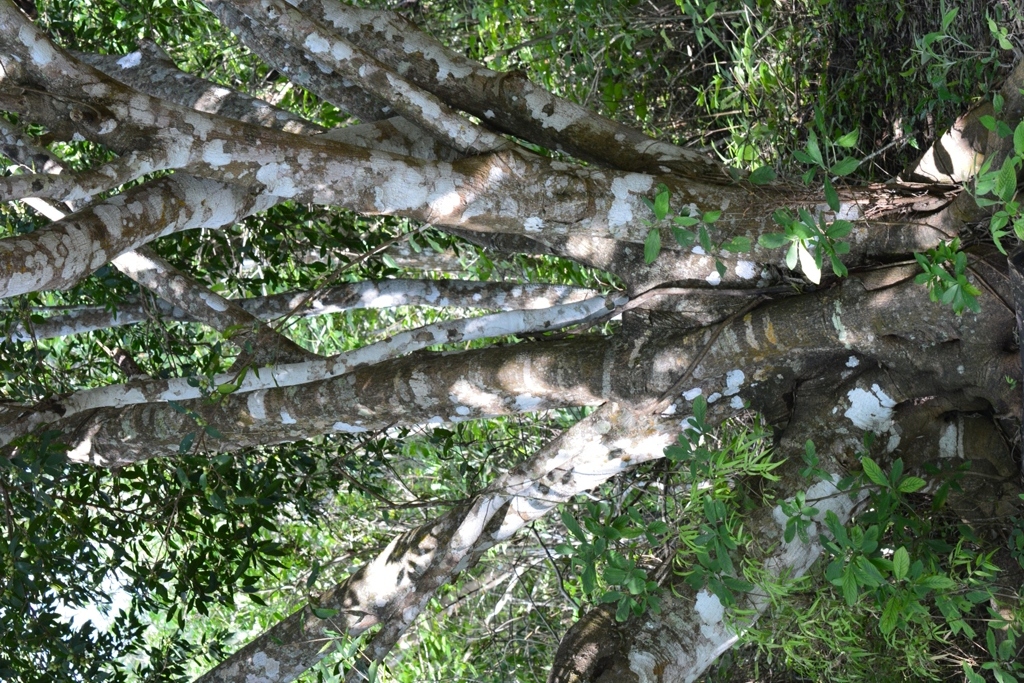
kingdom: Plantae
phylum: Tracheophyta
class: Magnoliopsida
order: Rosales
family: Moraceae
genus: Ficus
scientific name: Ficus pertusa
